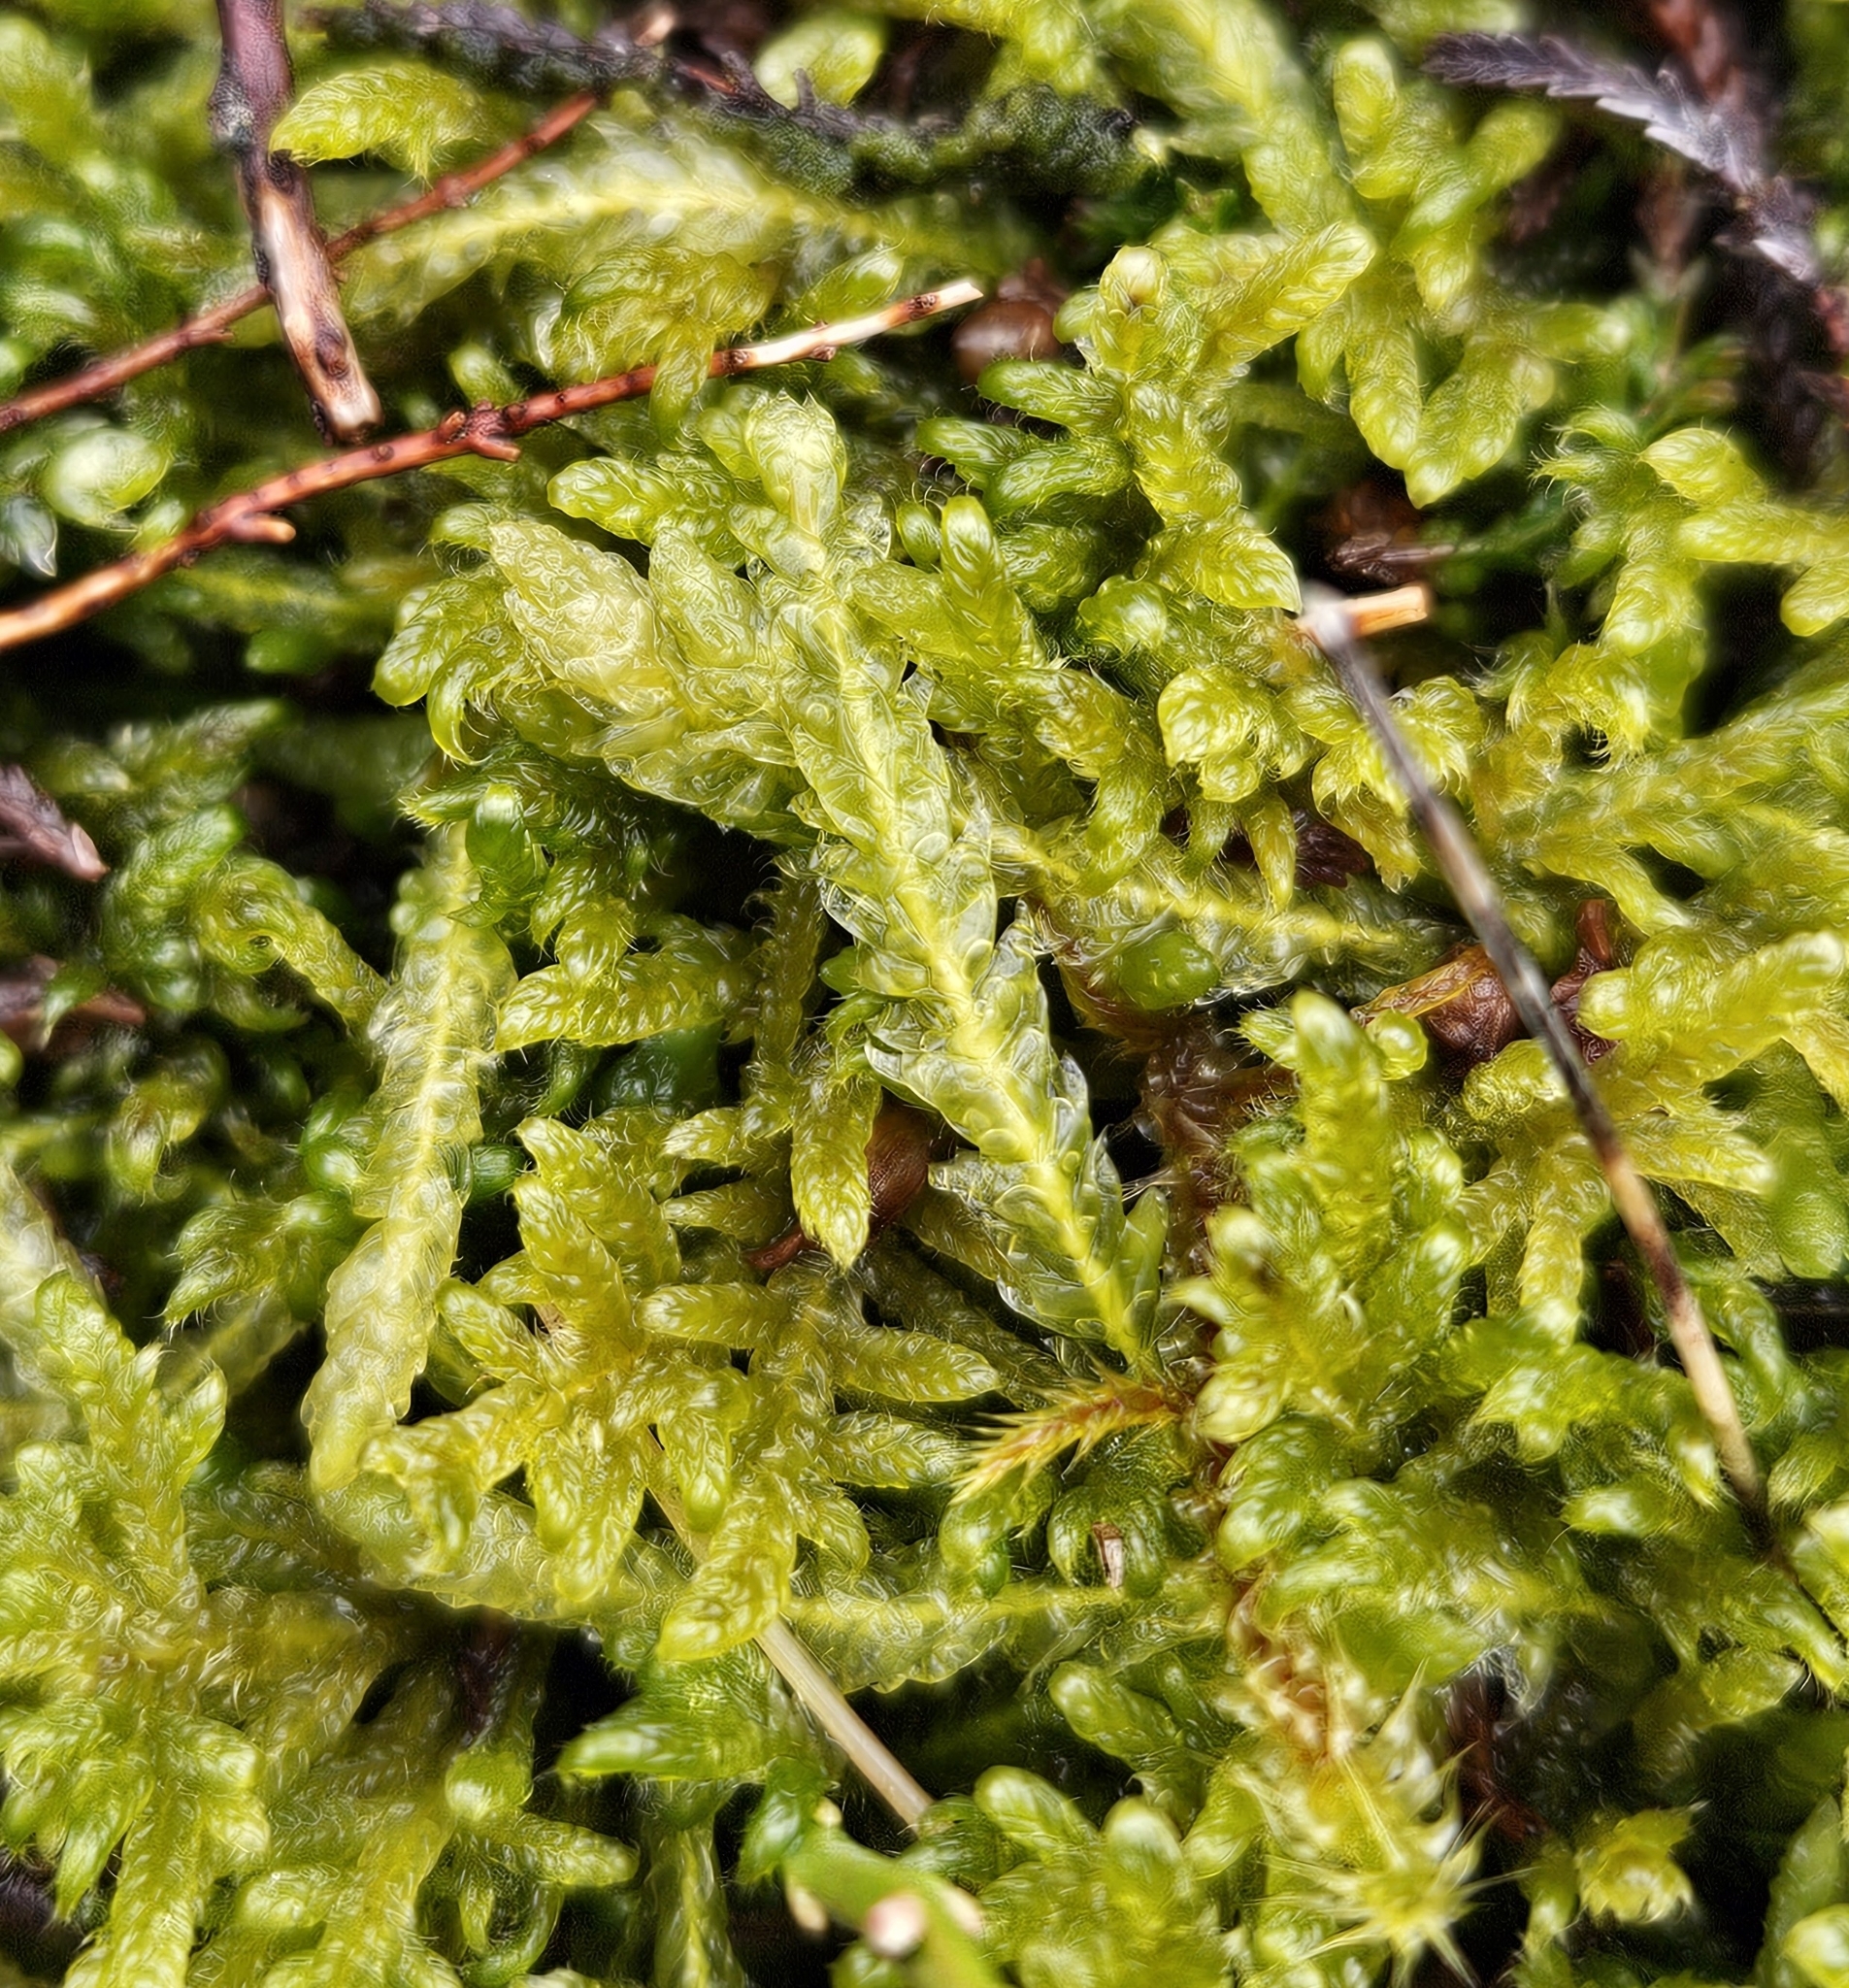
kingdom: Plantae
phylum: Bryophyta
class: Bryopsida
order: Hypnales
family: Plagiotheciaceae
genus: Plagiothecium
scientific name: Plagiothecium undulatum
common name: Waved silk-moss
